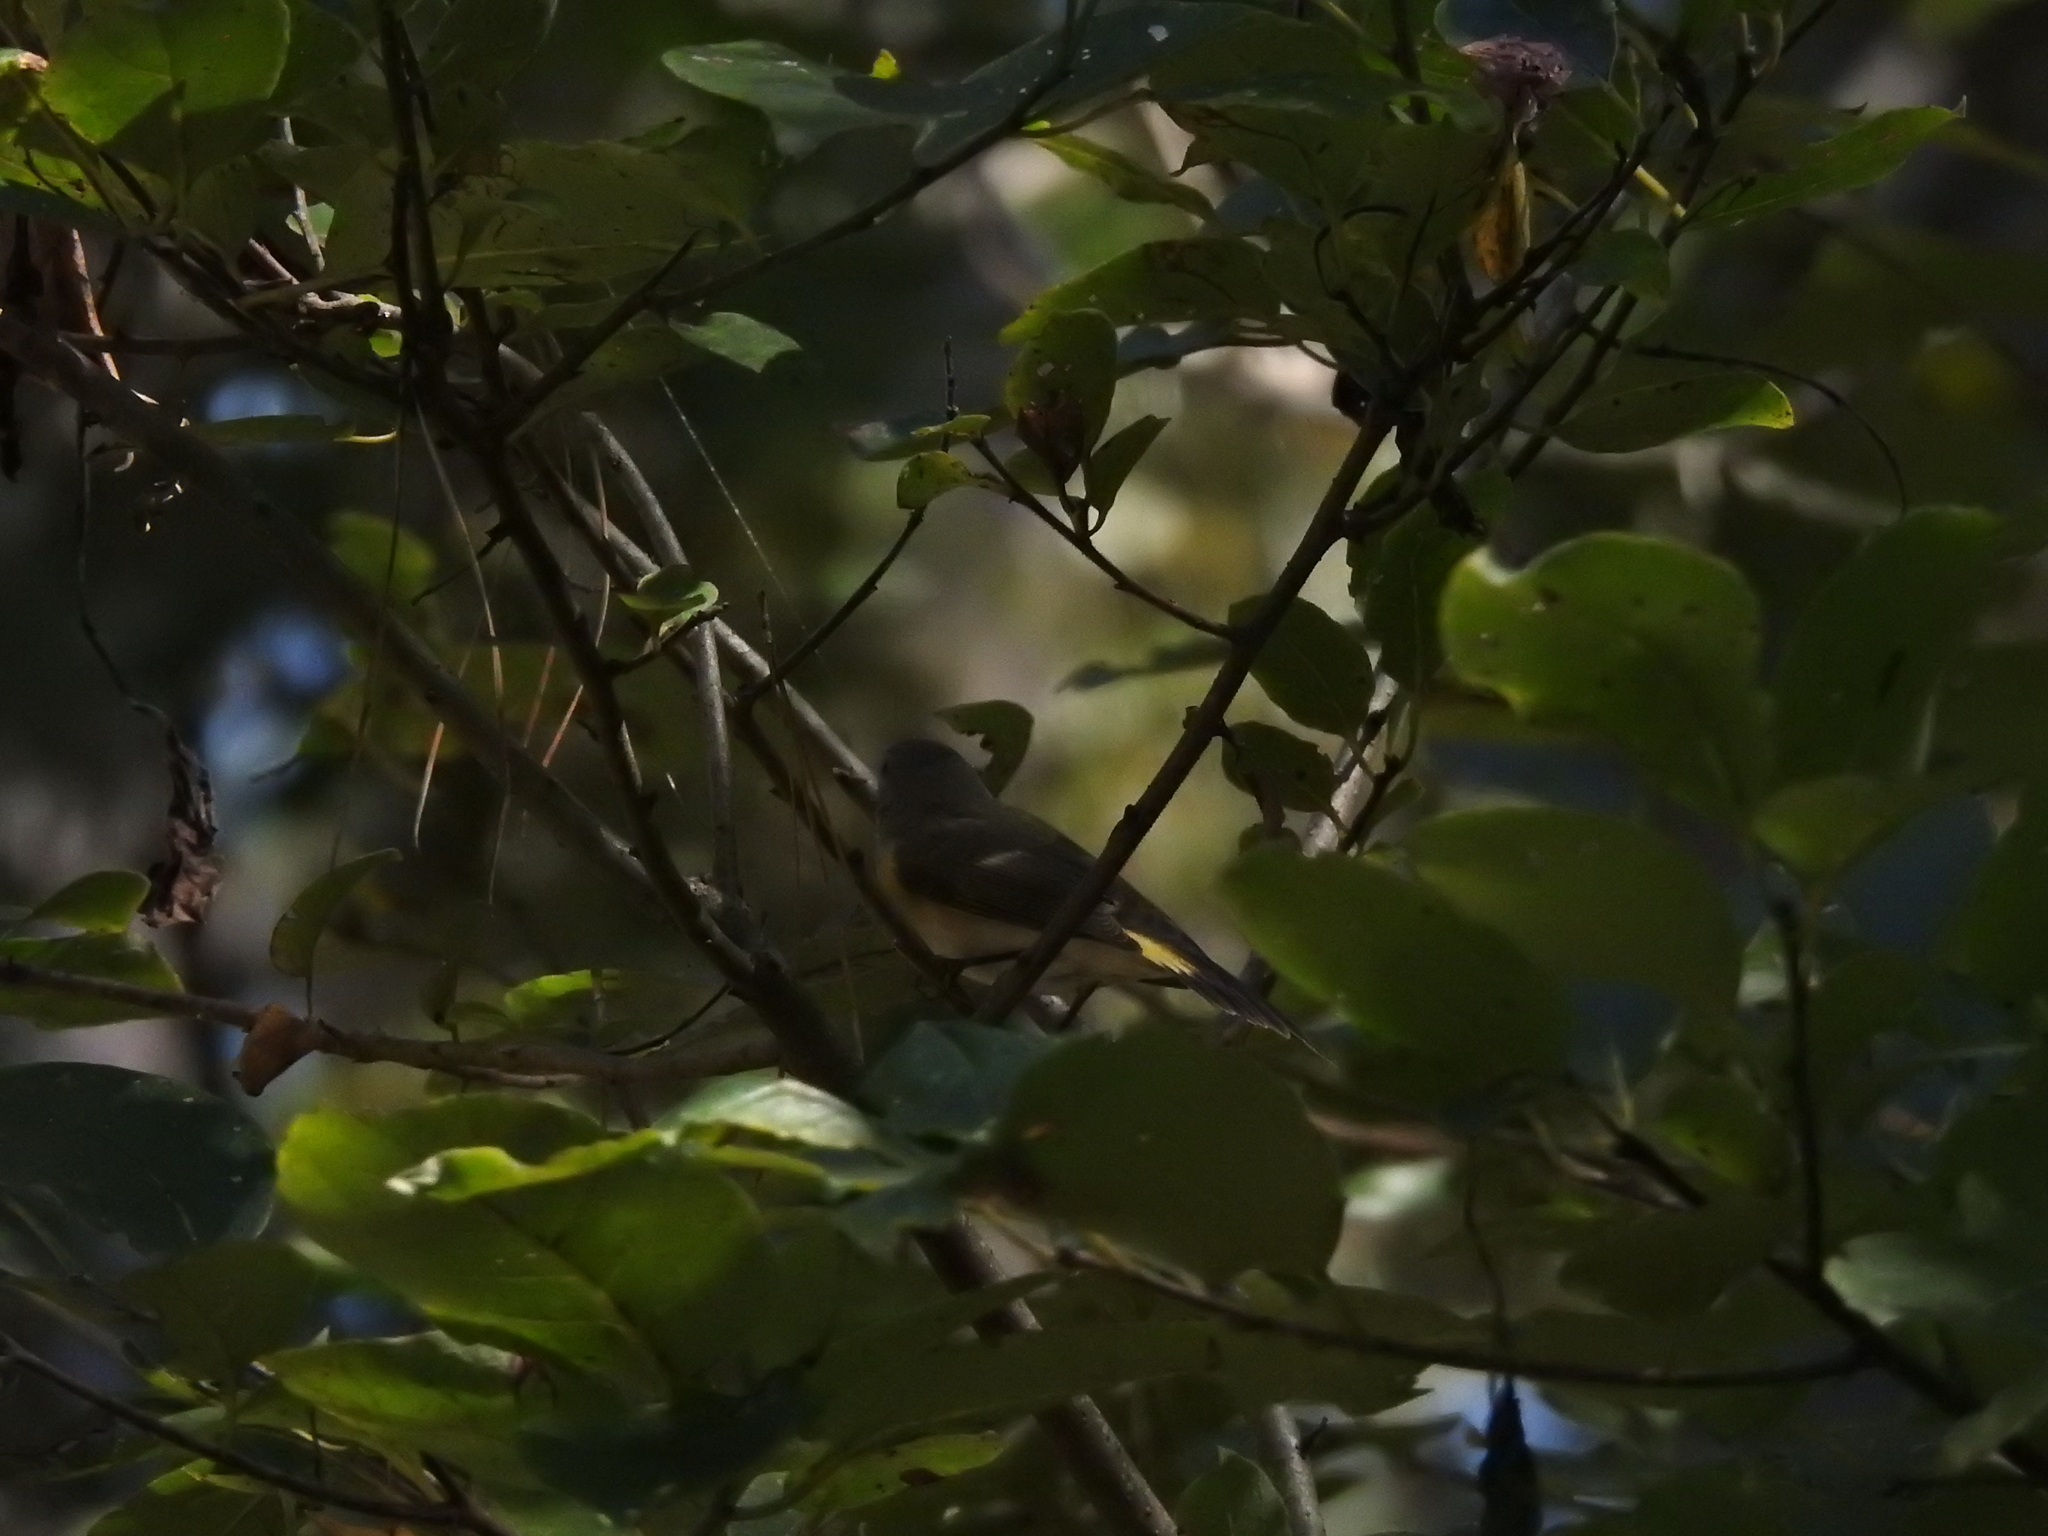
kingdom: Animalia
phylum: Chordata
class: Aves
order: Passeriformes
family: Parulidae
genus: Setophaga
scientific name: Setophaga ruticilla
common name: American redstart
